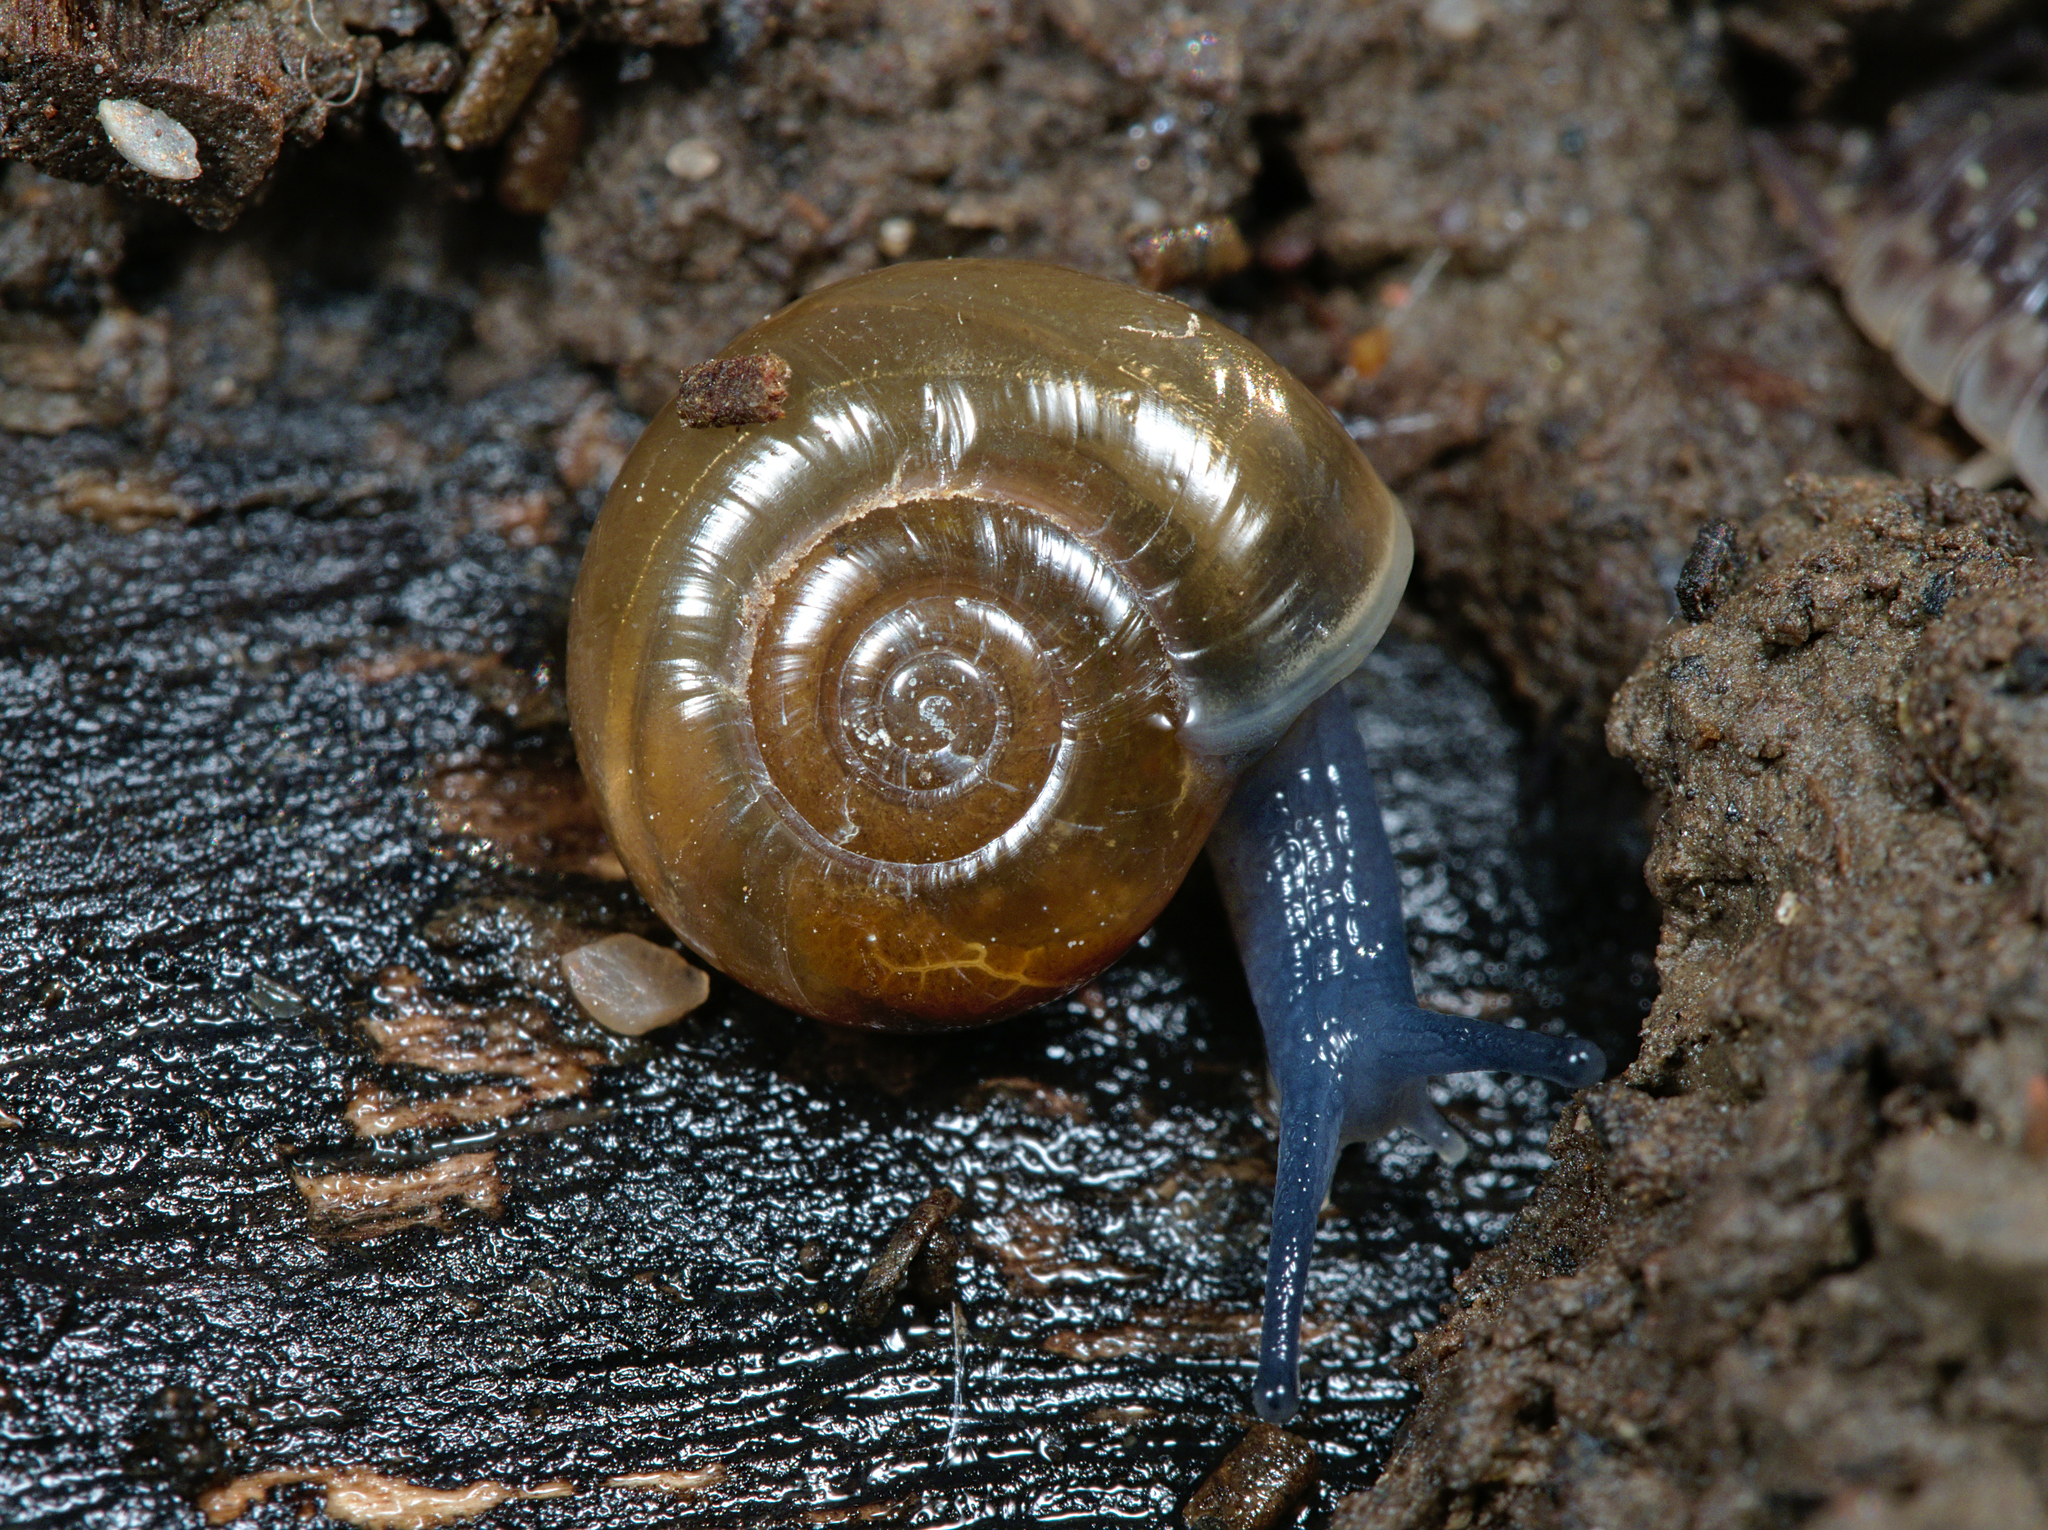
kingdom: Animalia
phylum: Mollusca
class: Gastropoda
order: Stylommatophora
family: Oxychilidae
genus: Oxychilus
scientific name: Oxychilus draparnaudi
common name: Draparnaud's glass snail
